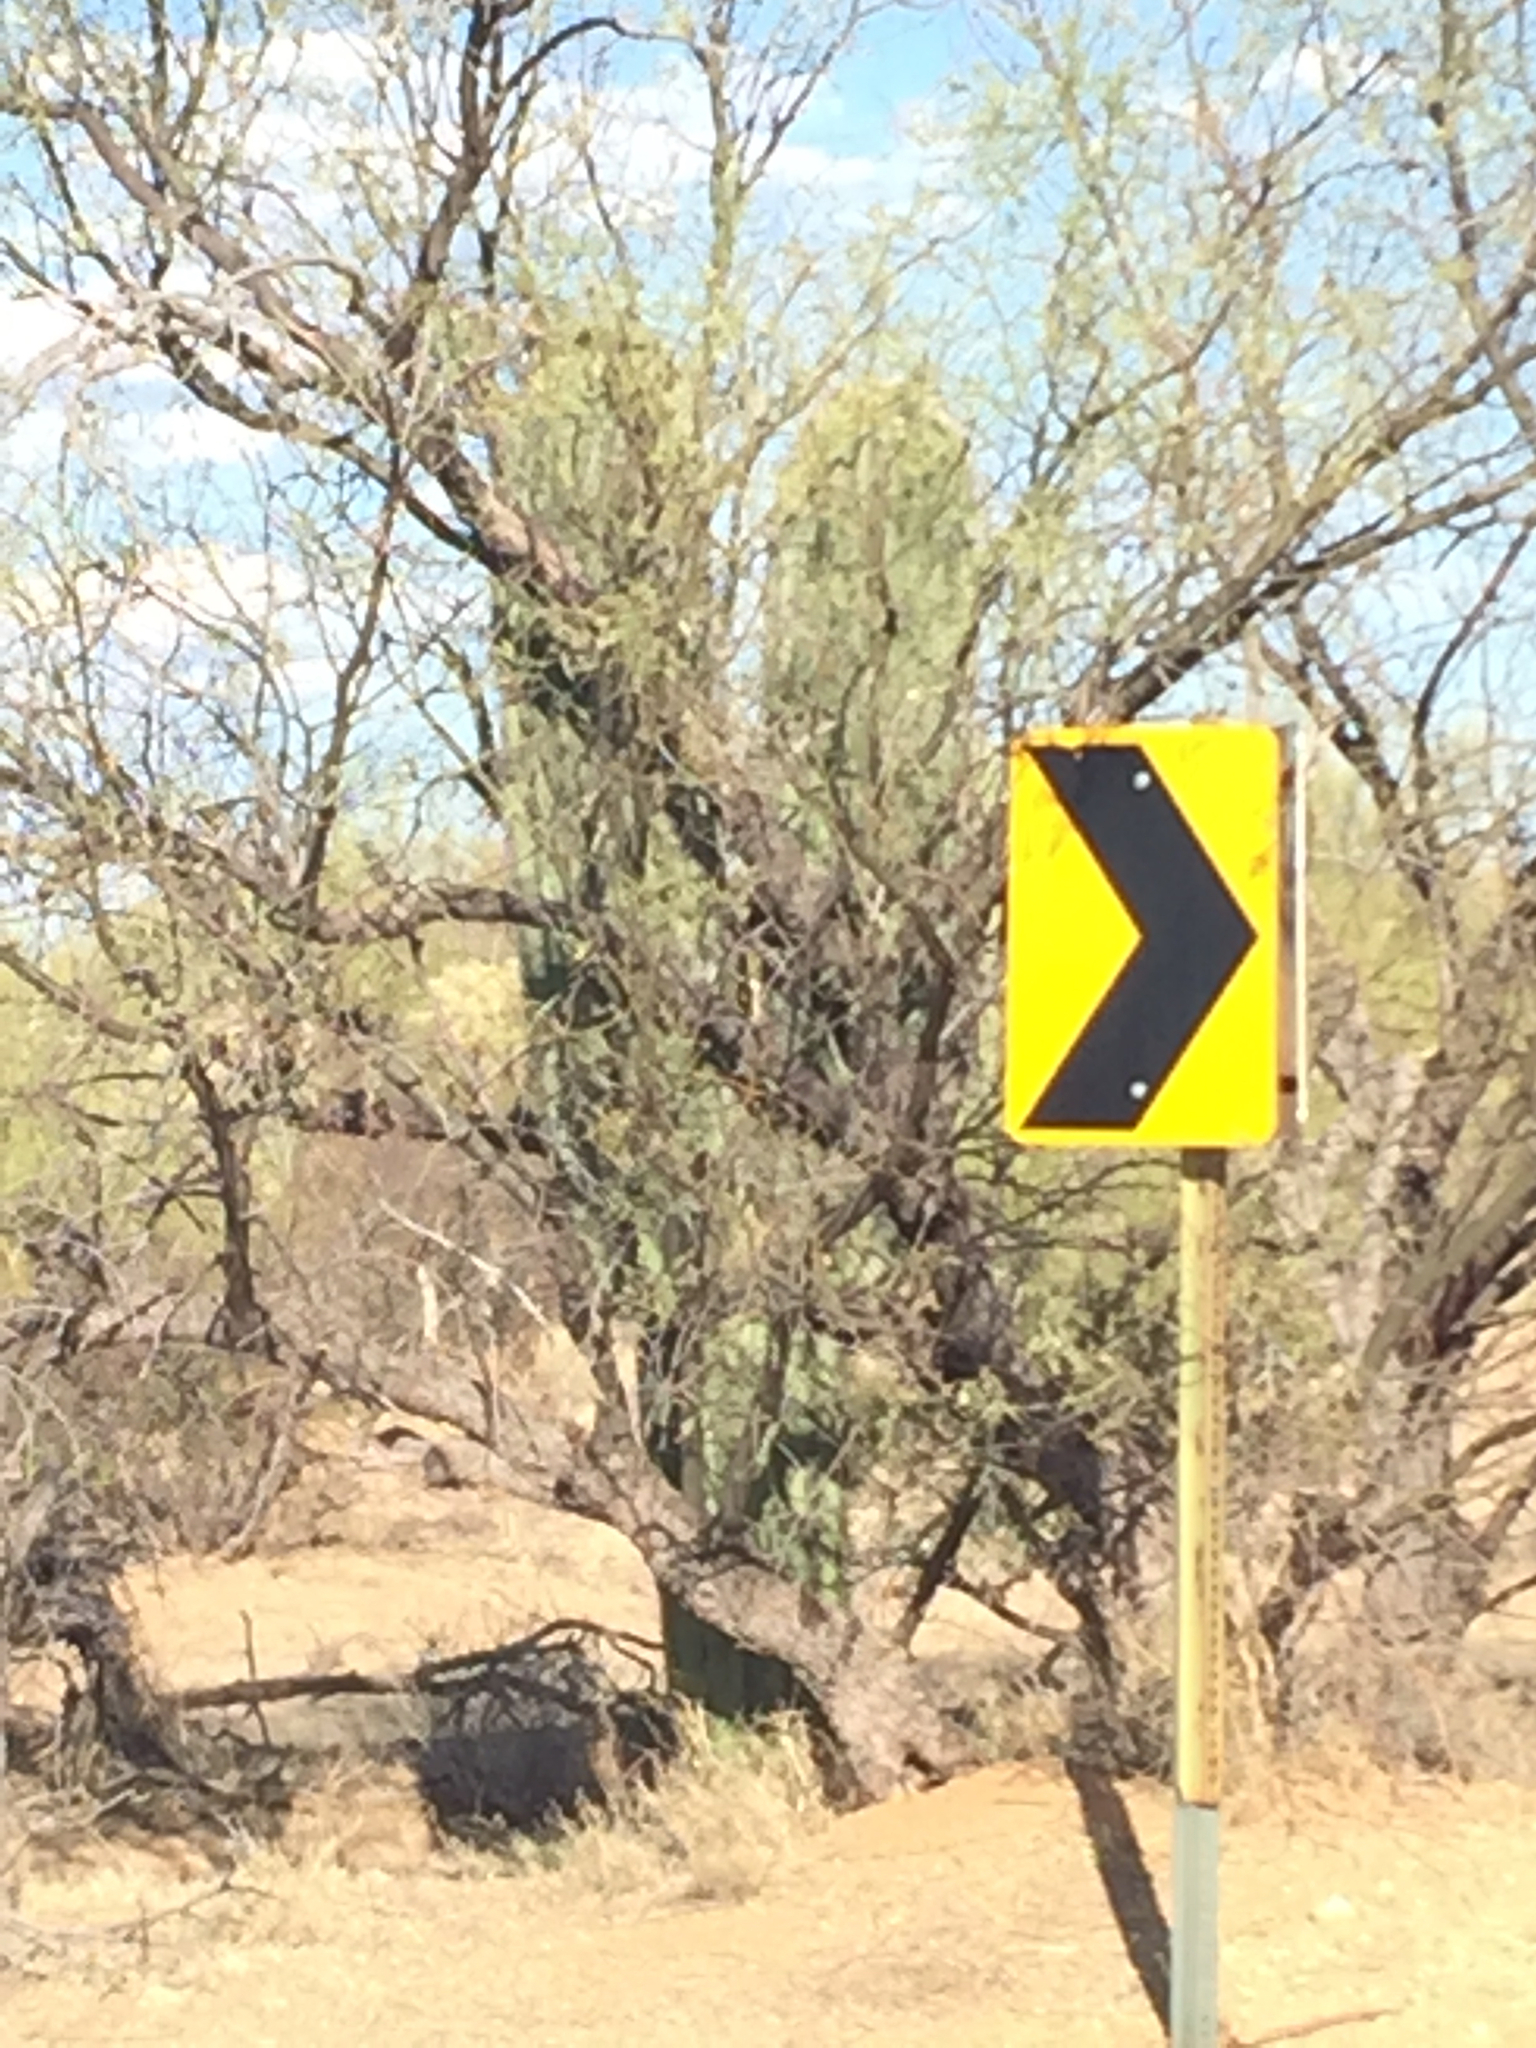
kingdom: Plantae
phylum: Tracheophyta
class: Magnoliopsida
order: Caryophyllales
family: Cactaceae
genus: Carnegiea
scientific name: Carnegiea gigantea
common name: Saguaro
